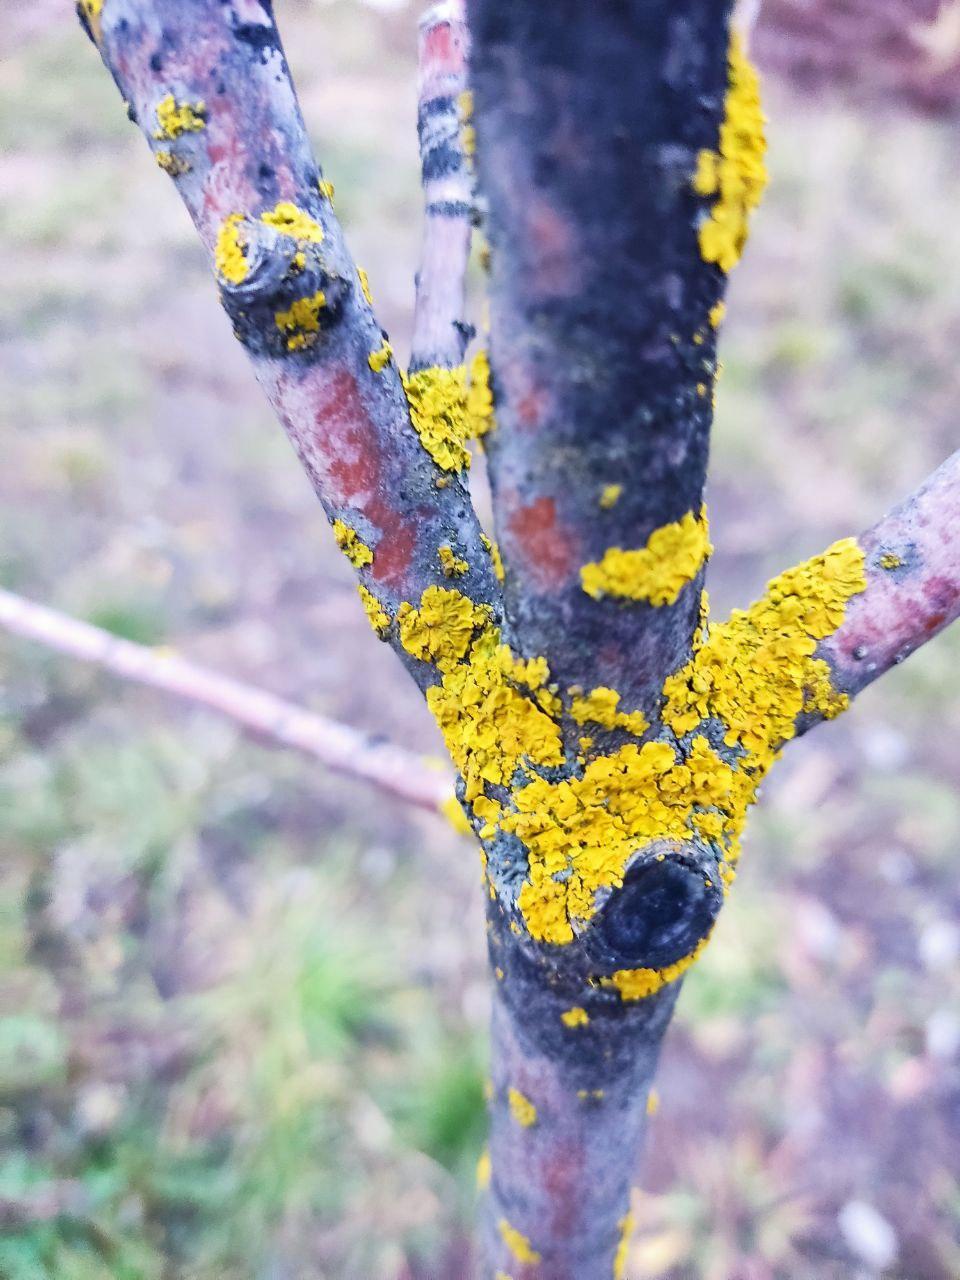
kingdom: Fungi
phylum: Ascomycota
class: Lecanoromycetes
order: Teloschistales
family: Teloschistaceae
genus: Xanthoria
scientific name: Xanthoria parietina
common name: Common orange lichen
